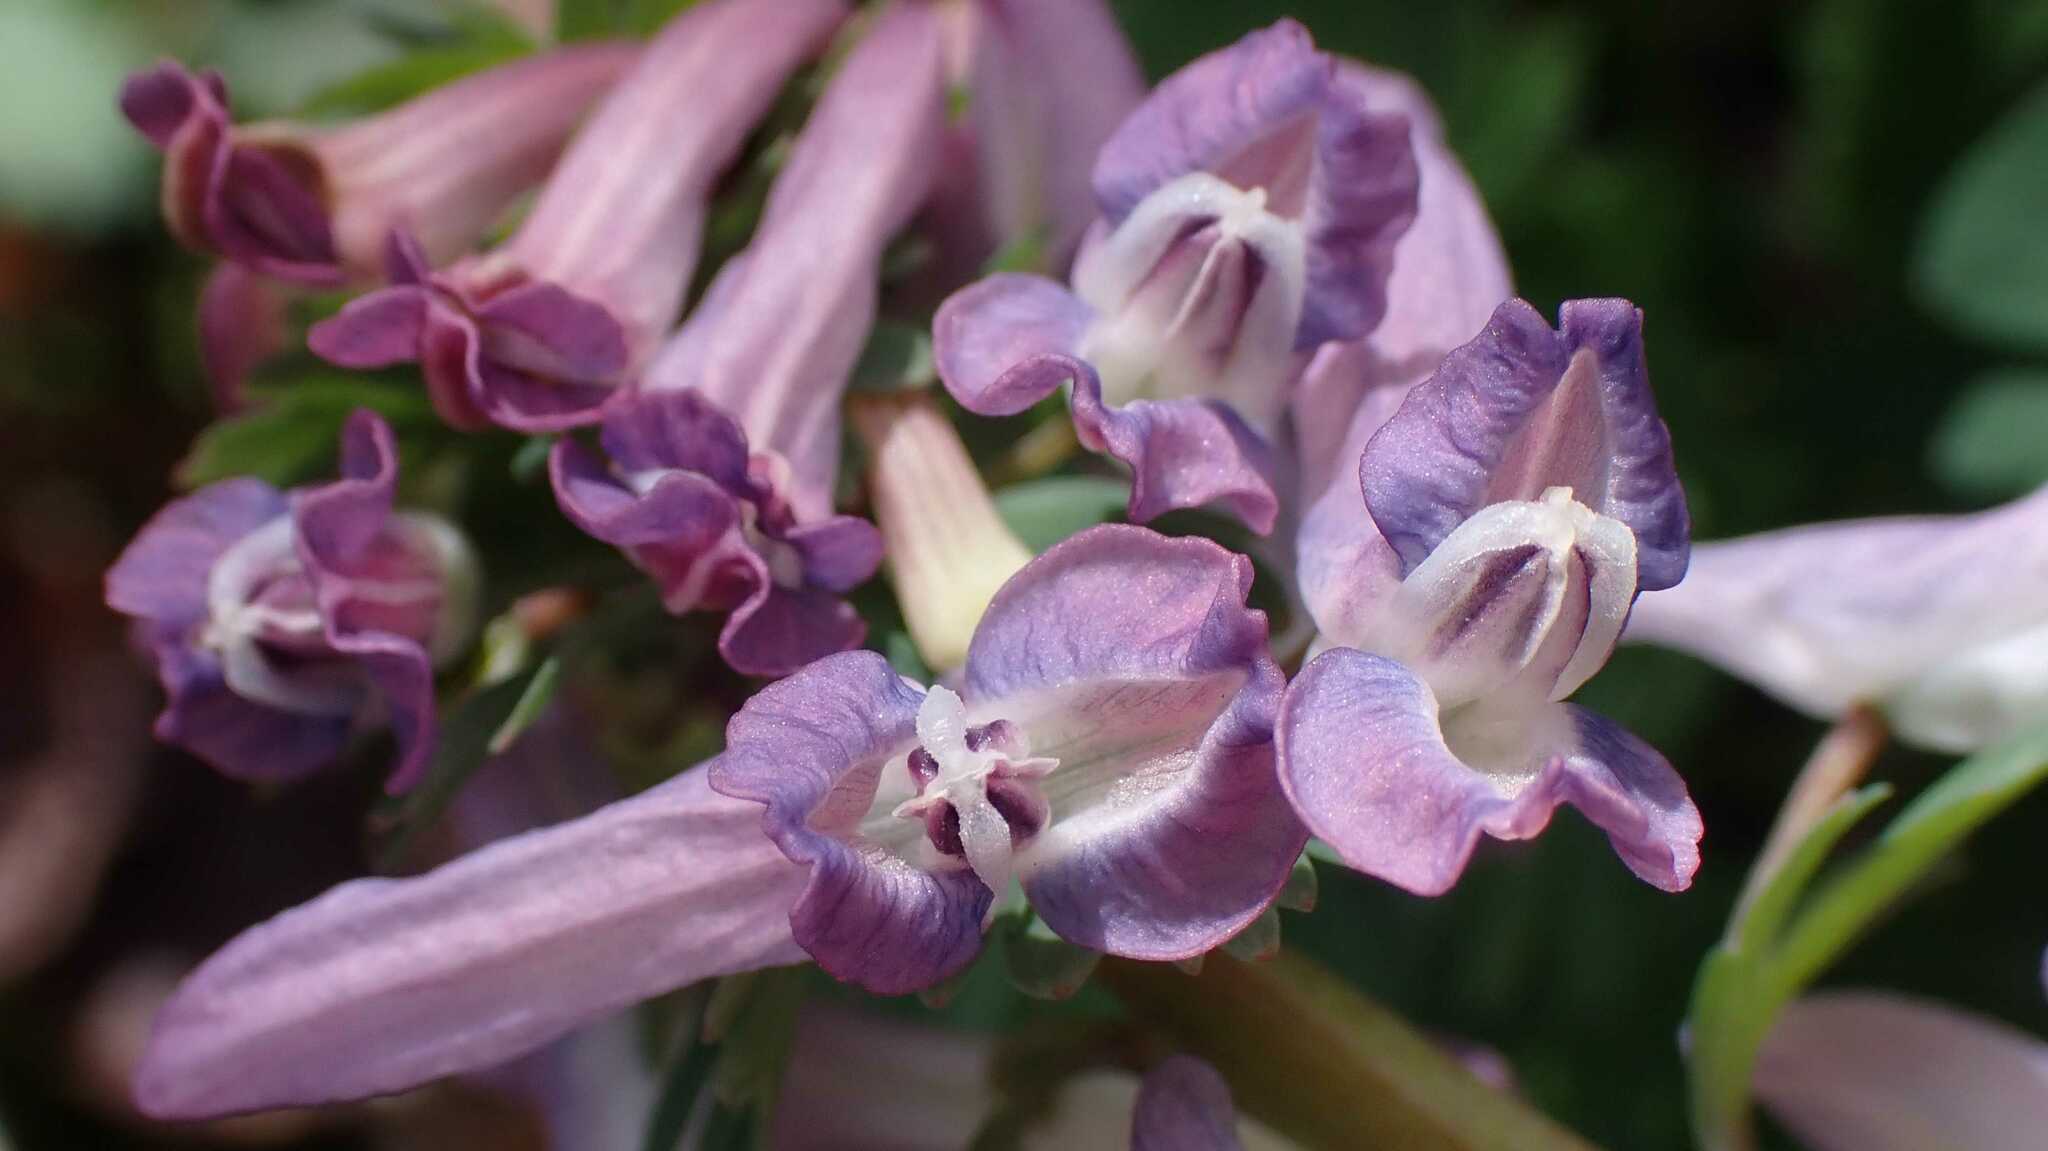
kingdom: Plantae
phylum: Tracheophyta
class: Magnoliopsida
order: Ranunculales
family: Papaveraceae
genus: Corydalis
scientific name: Corydalis solida
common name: Bird-in-a-bush
